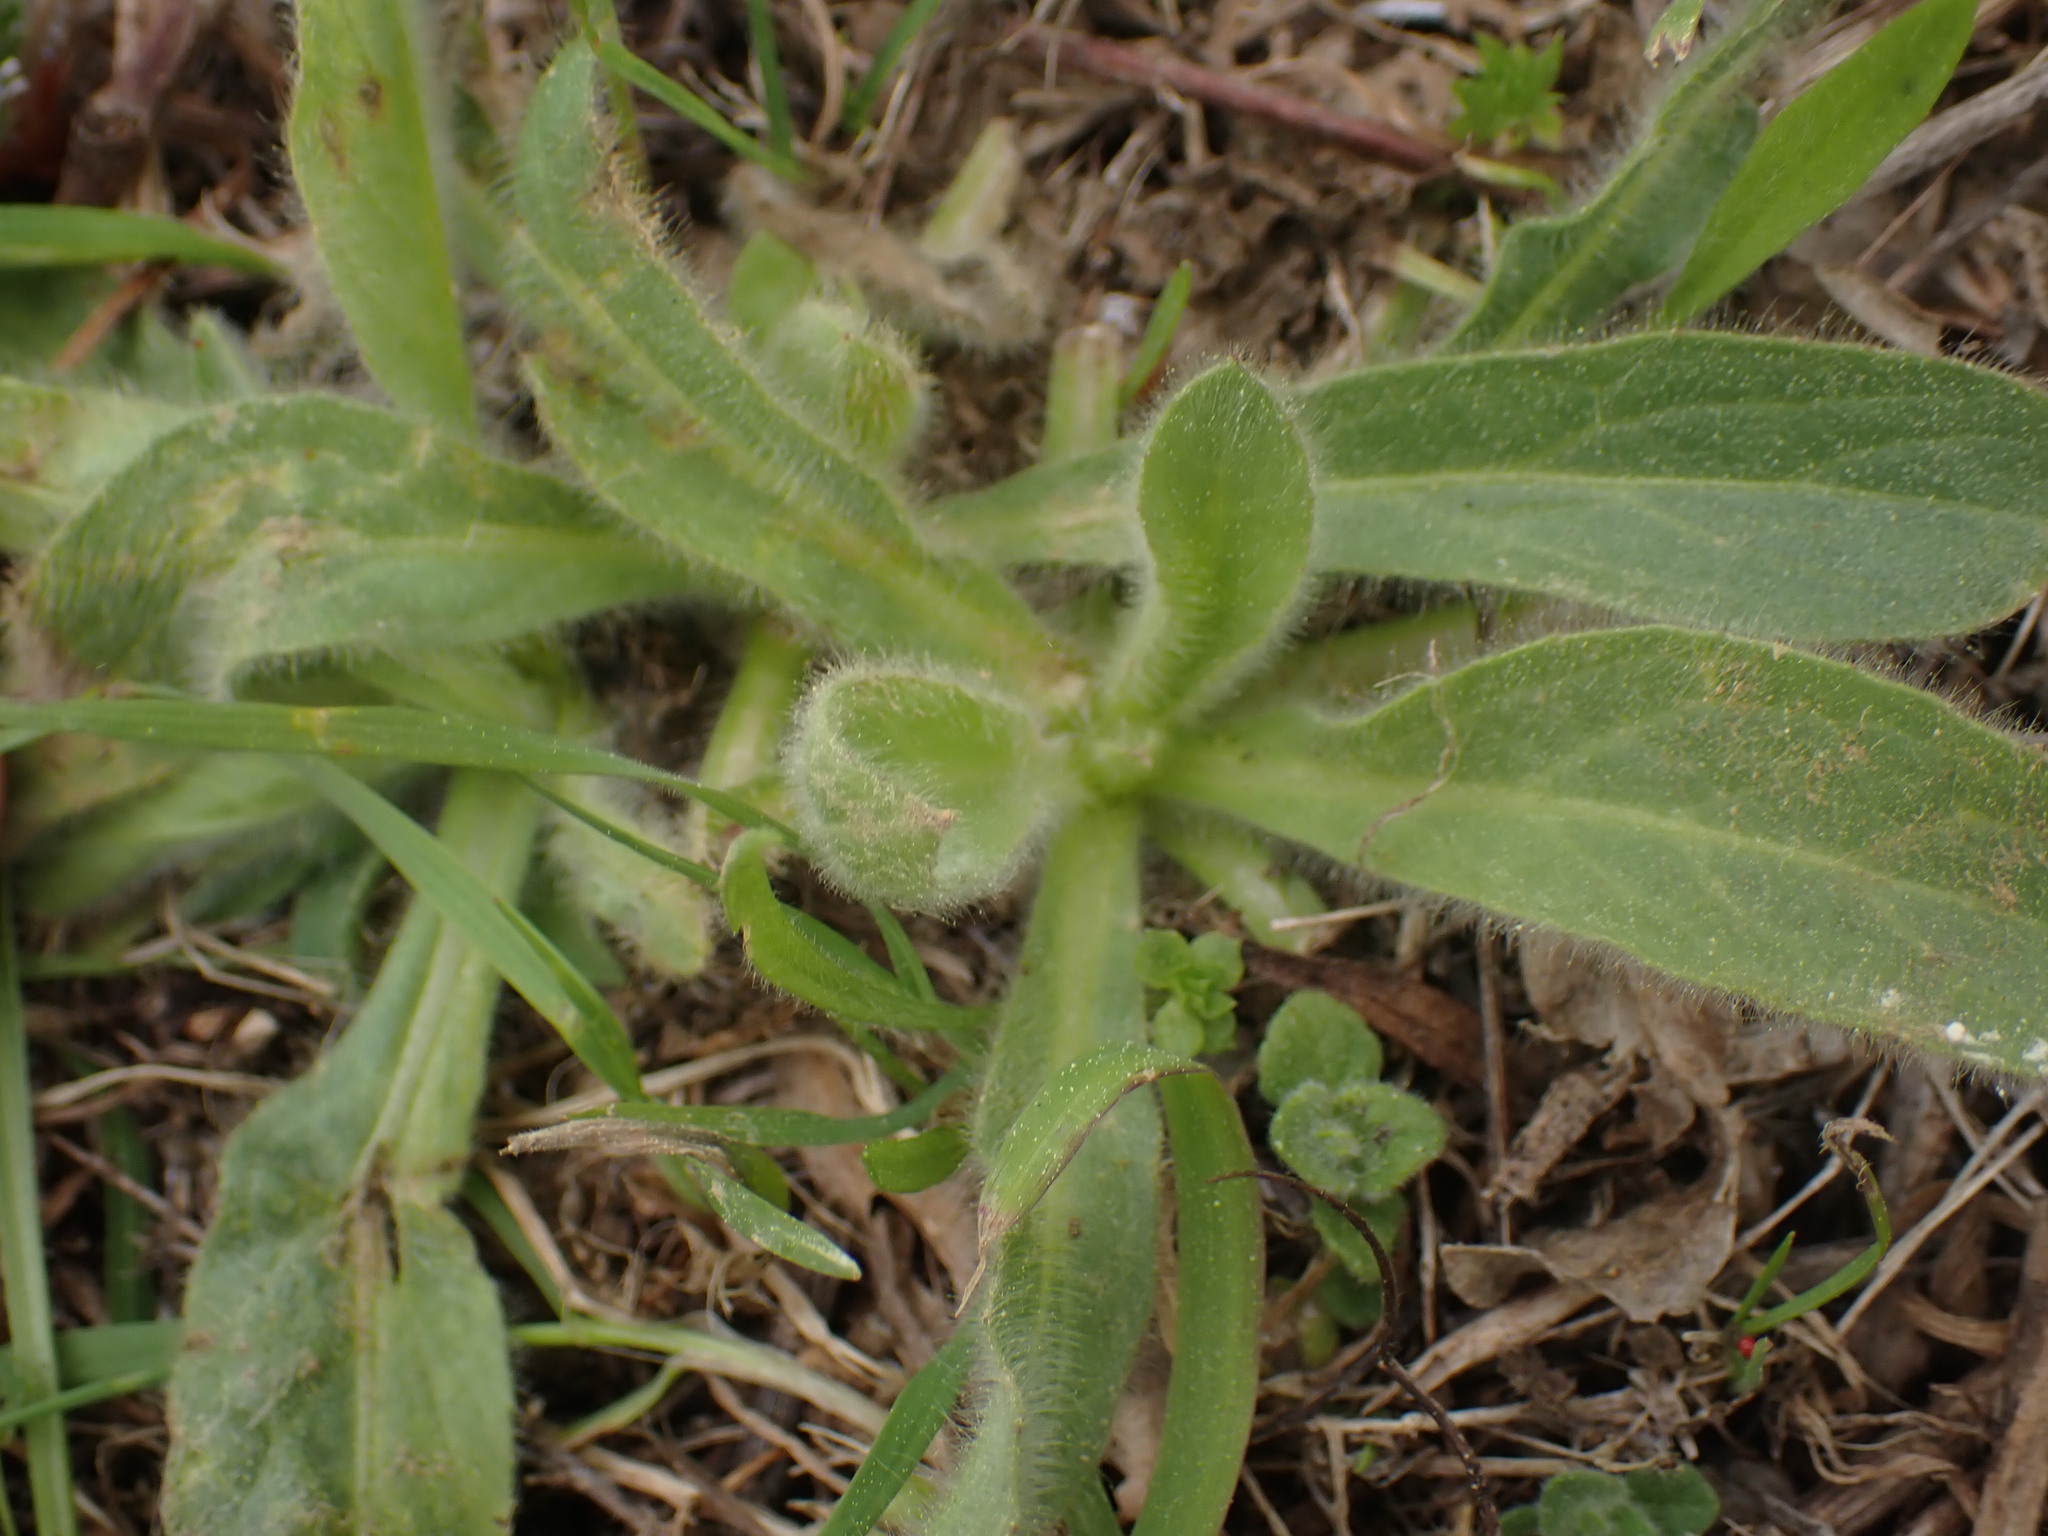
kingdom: Plantae
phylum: Tracheophyta
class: Magnoliopsida
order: Asterales
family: Asteraceae
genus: Pallenis
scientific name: Pallenis spinosa
